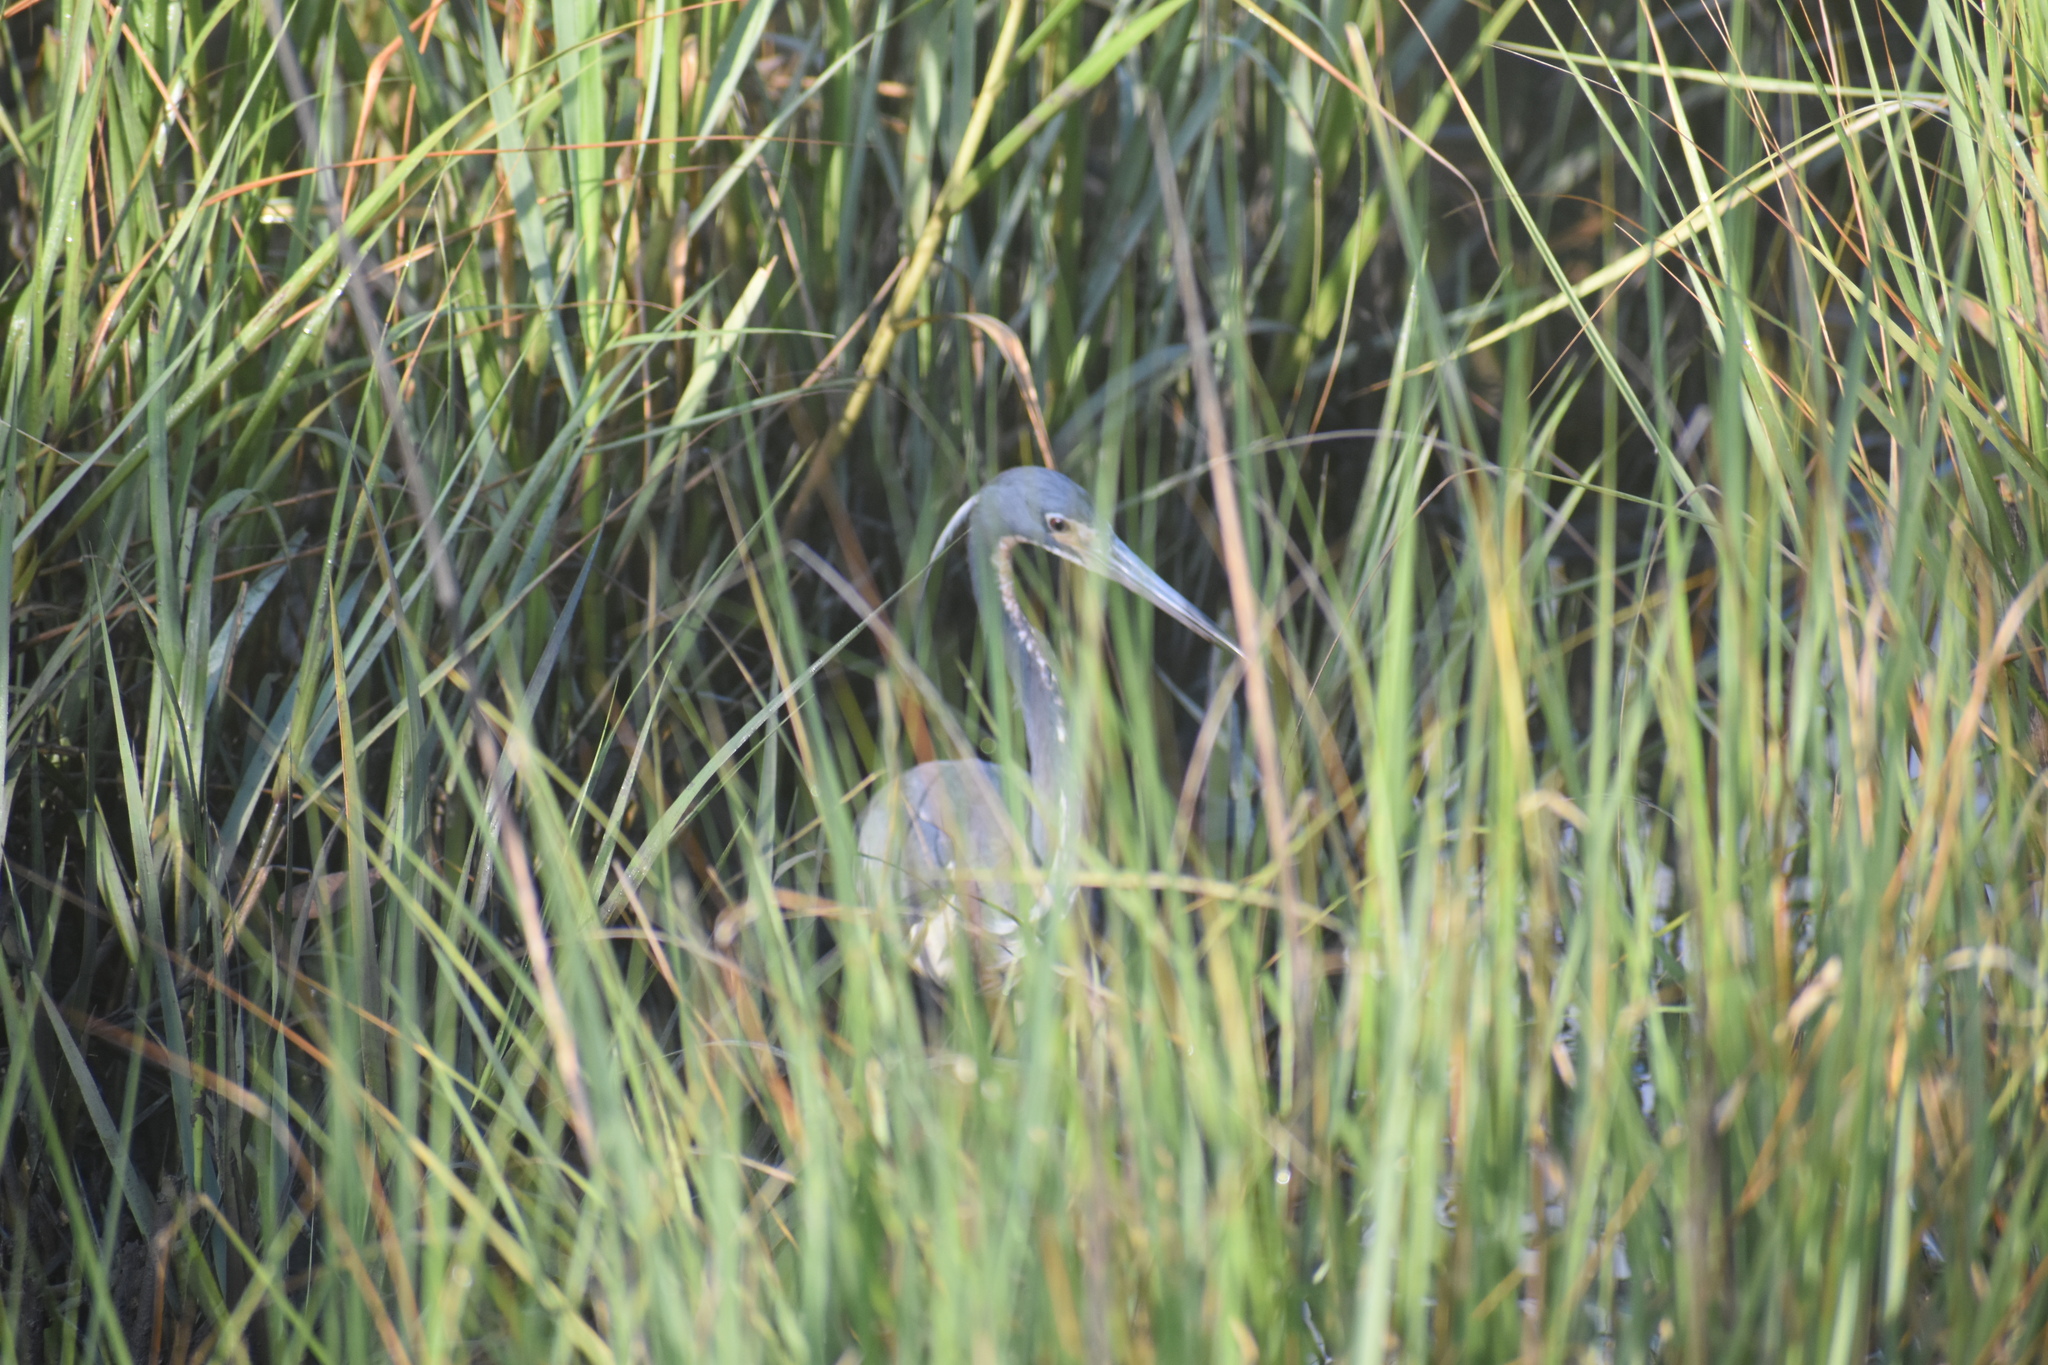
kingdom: Animalia
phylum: Chordata
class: Aves
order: Pelecaniformes
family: Ardeidae
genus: Egretta
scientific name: Egretta tricolor
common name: Tricolored heron
